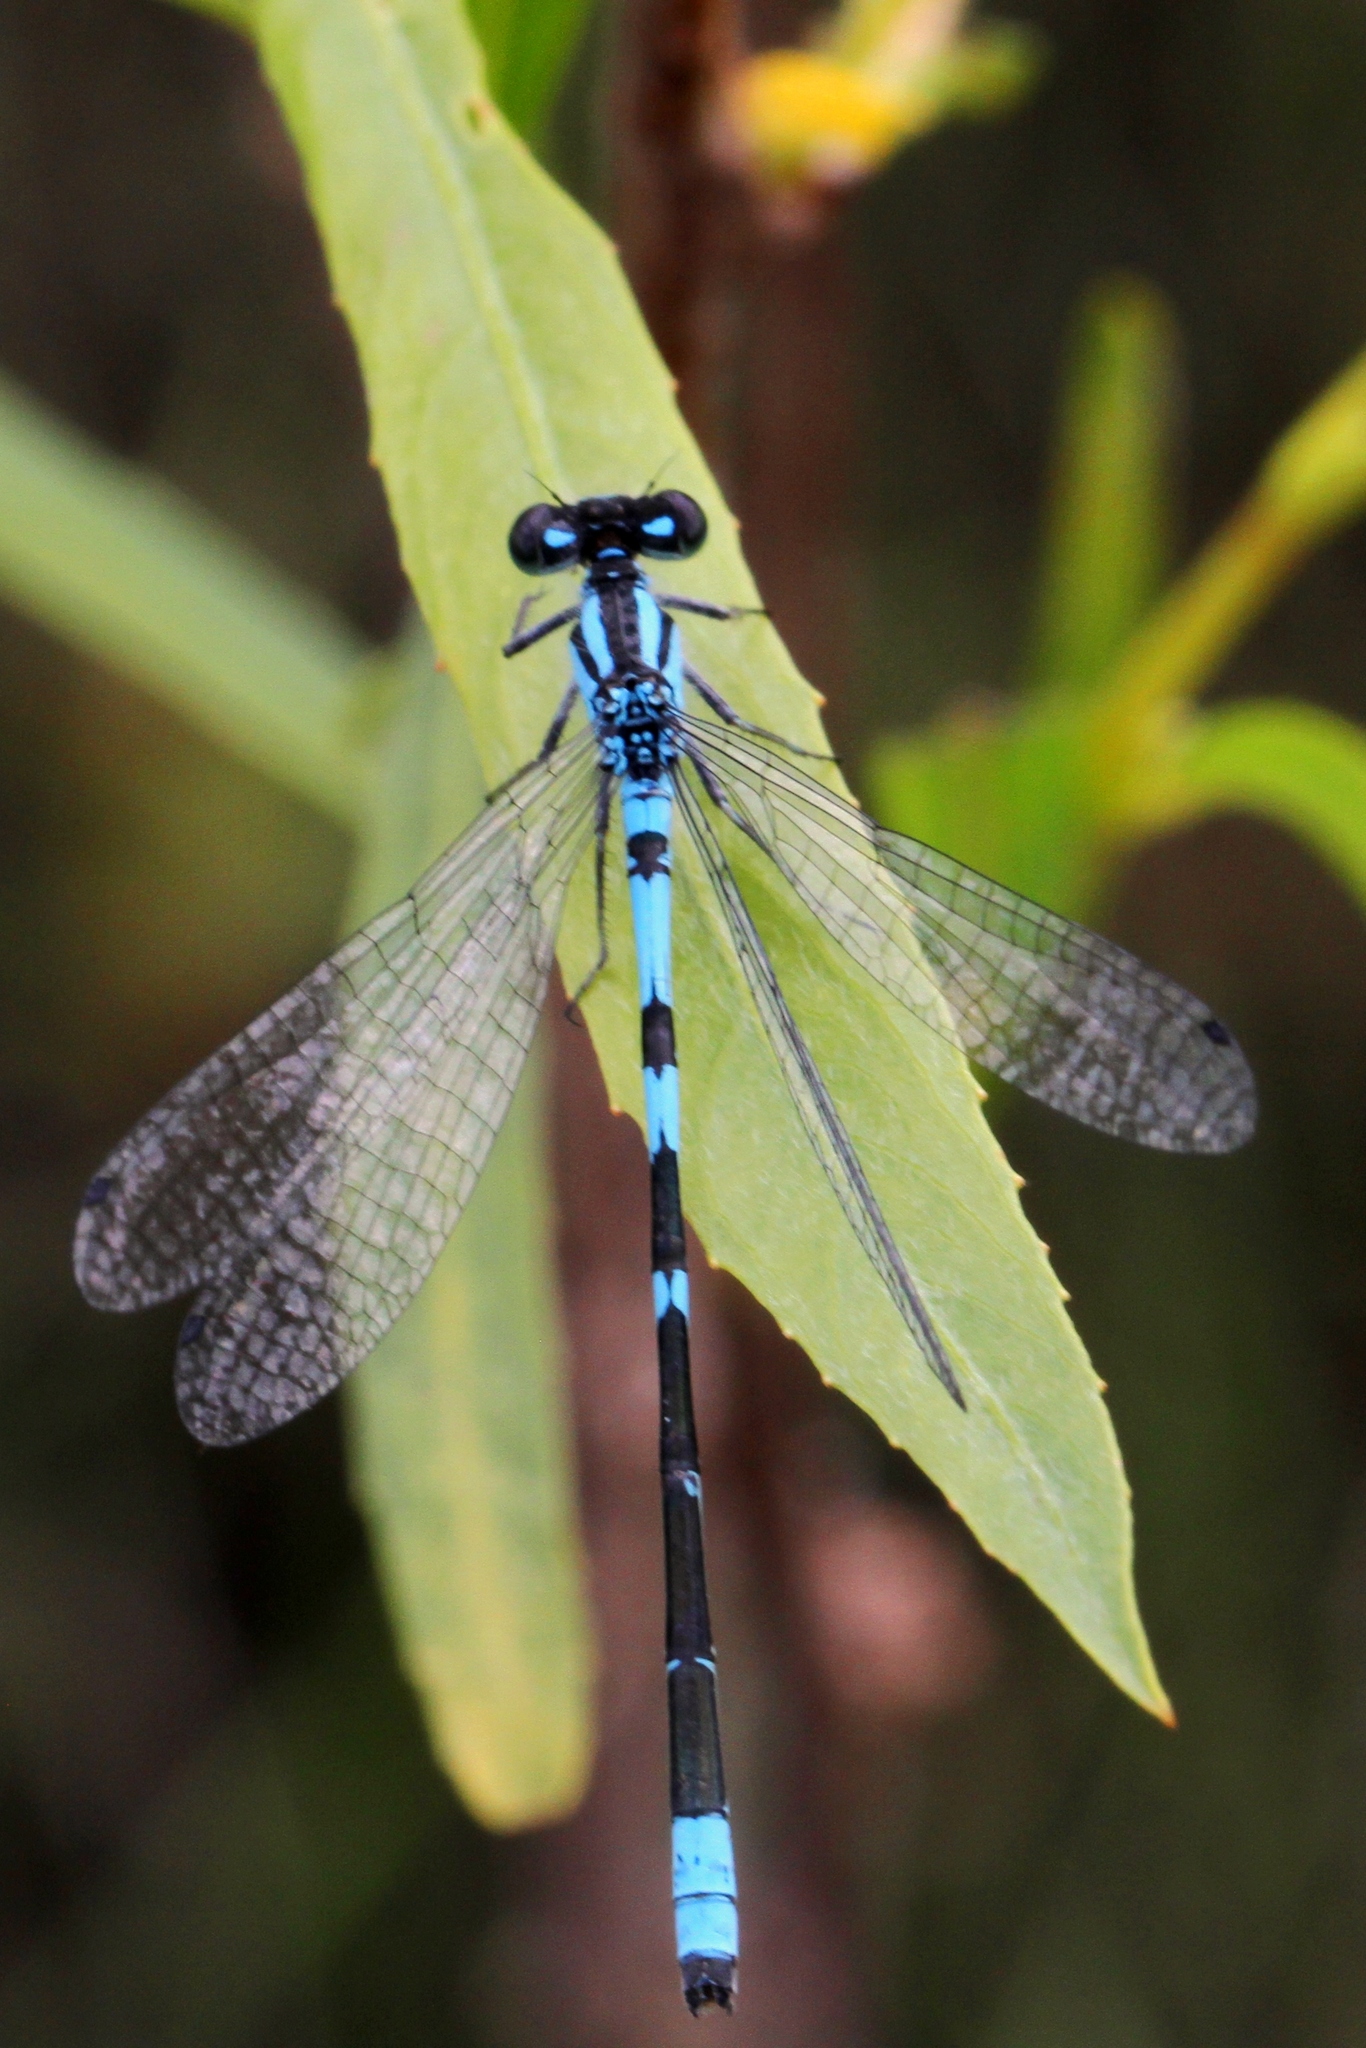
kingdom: Animalia
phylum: Arthropoda
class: Insecta
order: Odonata
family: Coenagrionidae
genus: Enallagma
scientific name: Enallagma hageni
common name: Hagen's bluet
